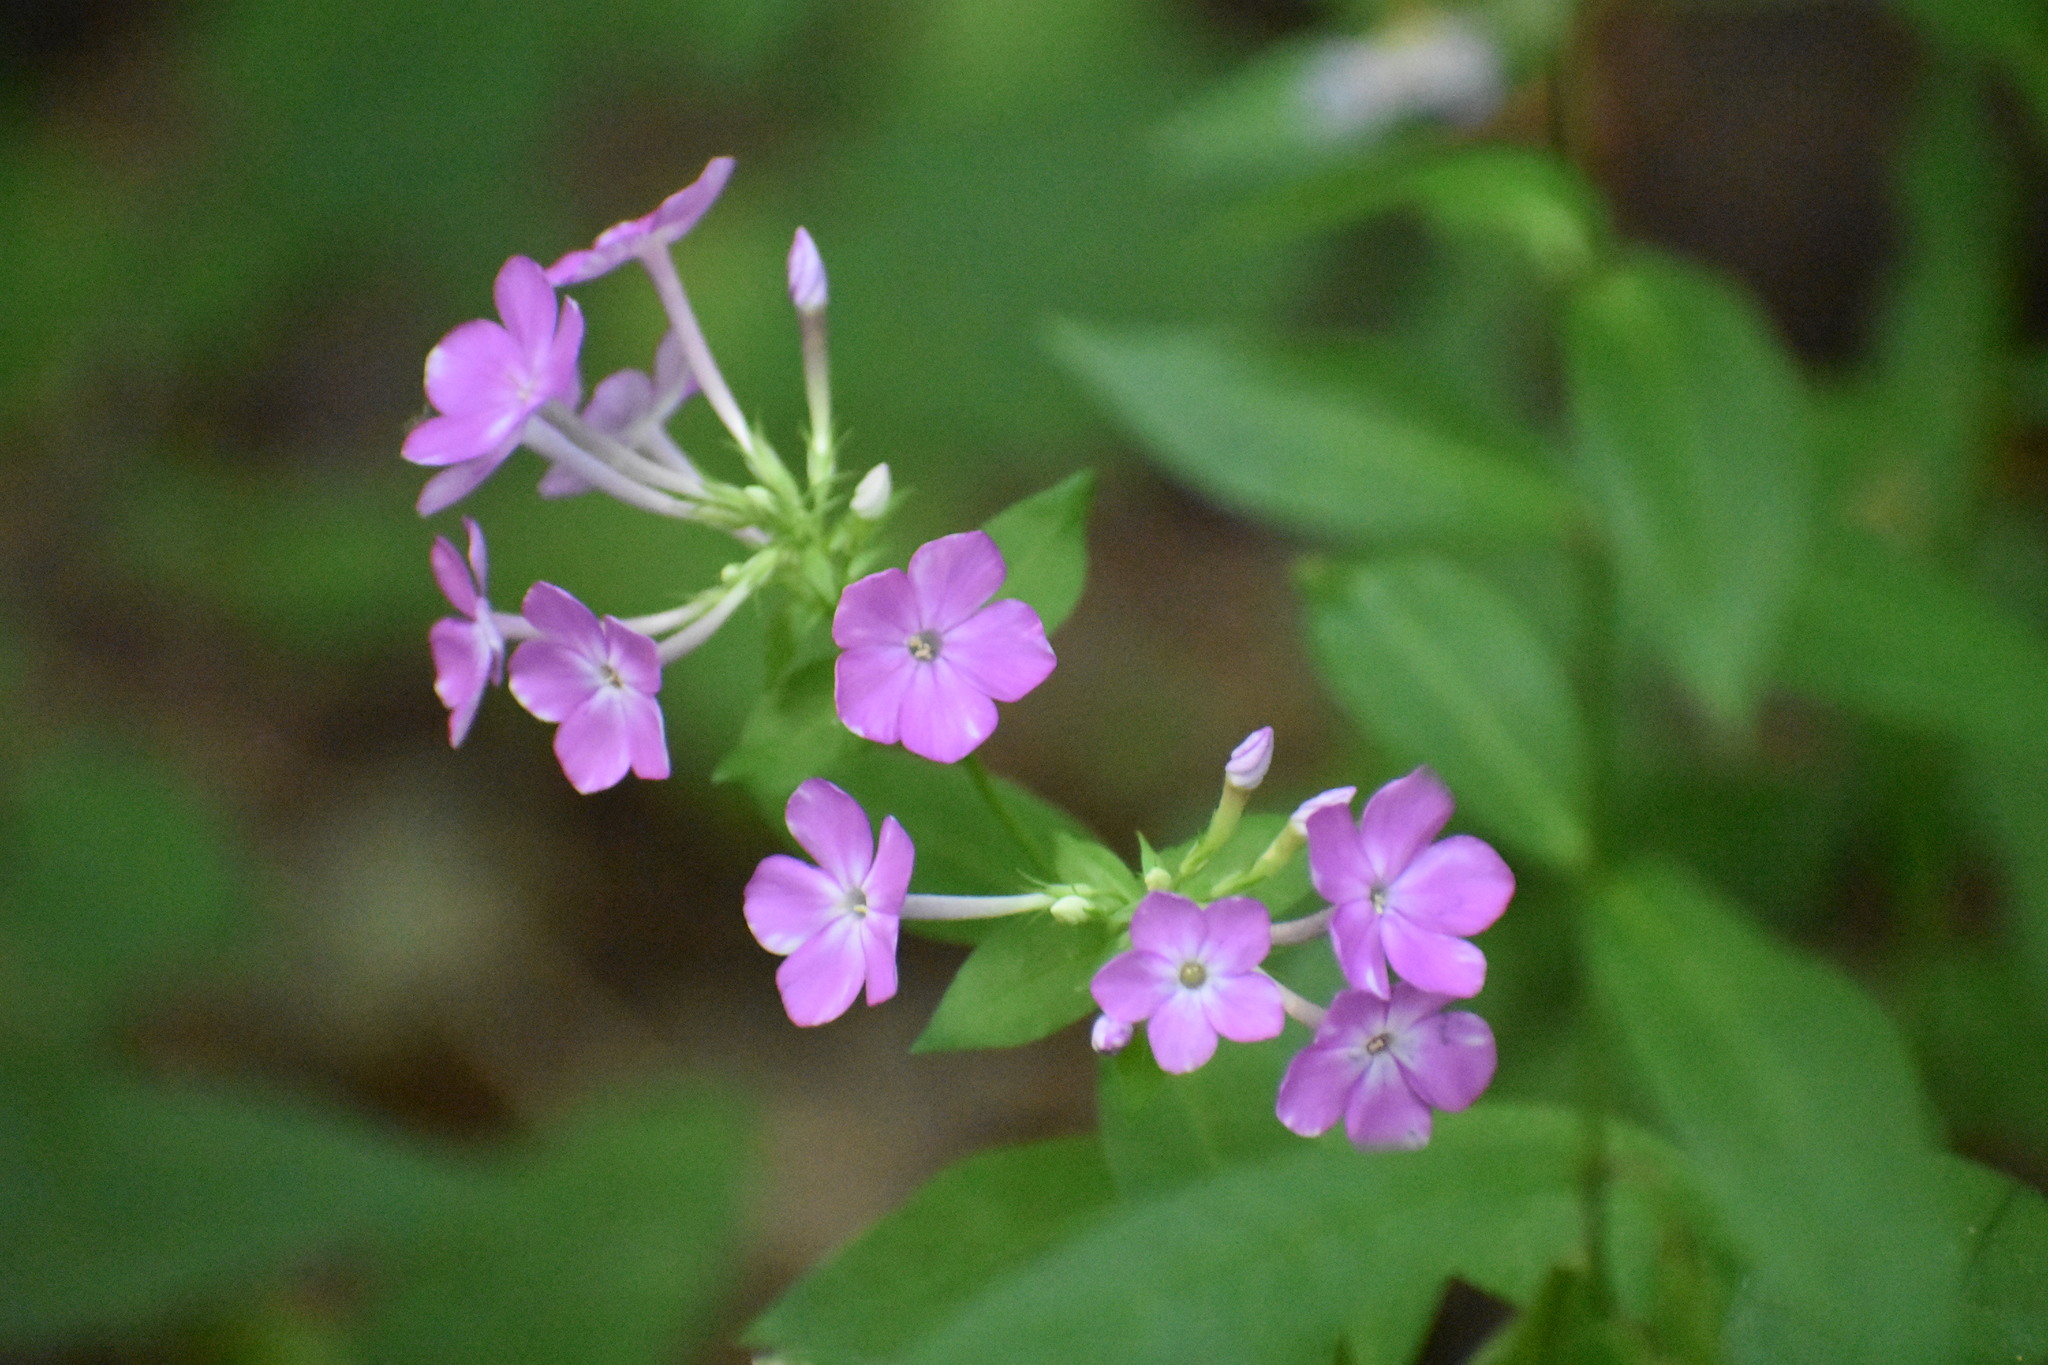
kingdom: Plantae
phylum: Tracheophyta
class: Magnoliopsida
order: Ericales
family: Polemoniaceae
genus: Phlox
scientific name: Phlox paniculata
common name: Fall phlox
